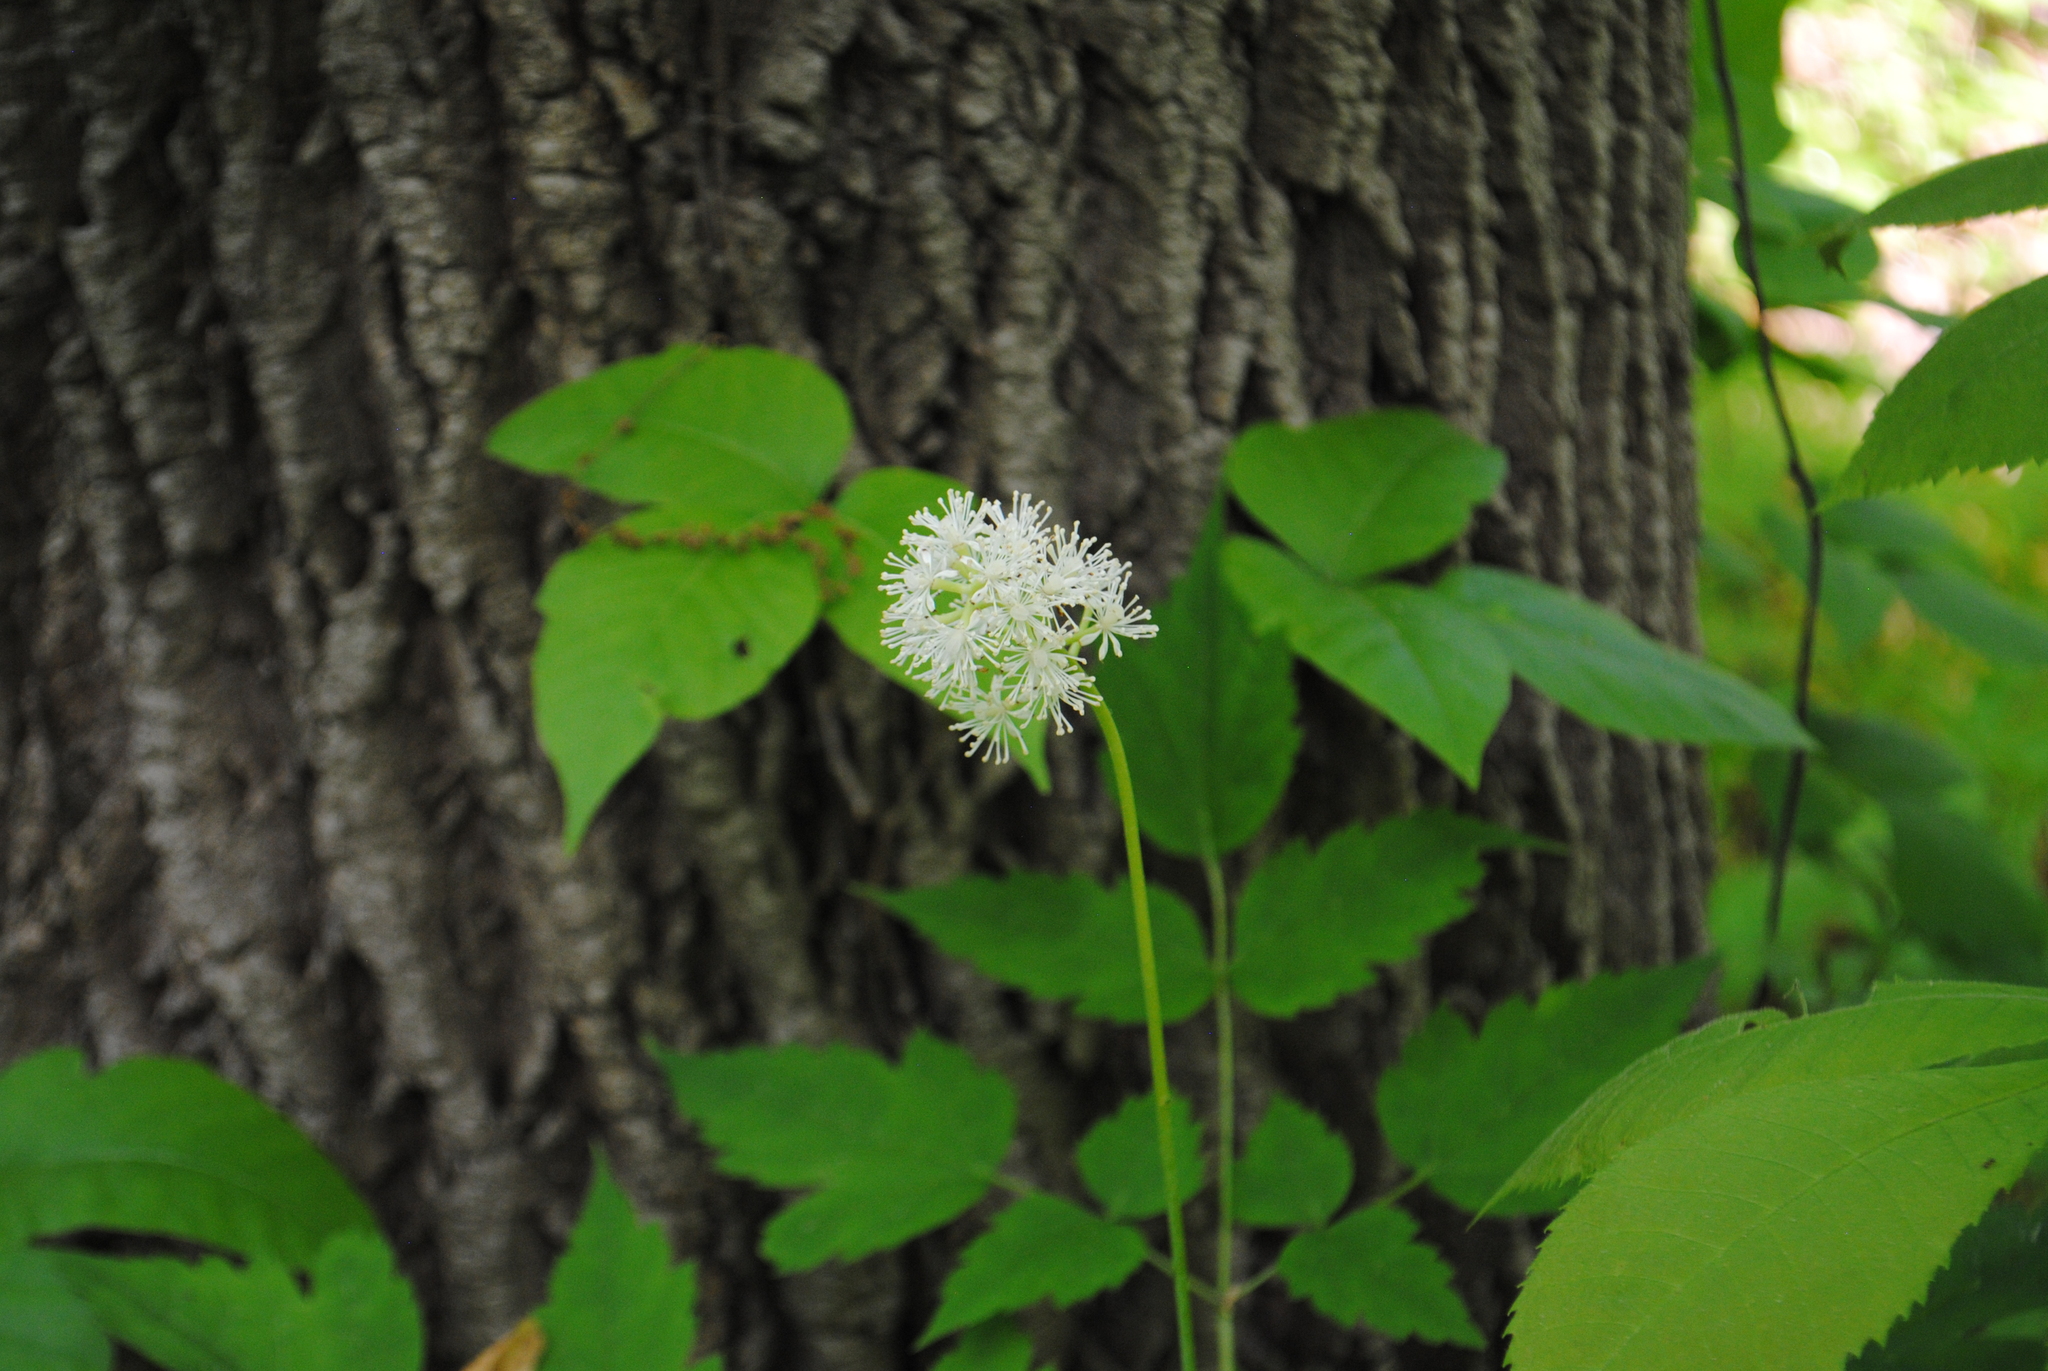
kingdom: Plantae
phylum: Tracheophyta
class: Magnoliopsida
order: Ranunculales
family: Ranunculaceae
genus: Actaea
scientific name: Actaea rubra
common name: Red baneberry
